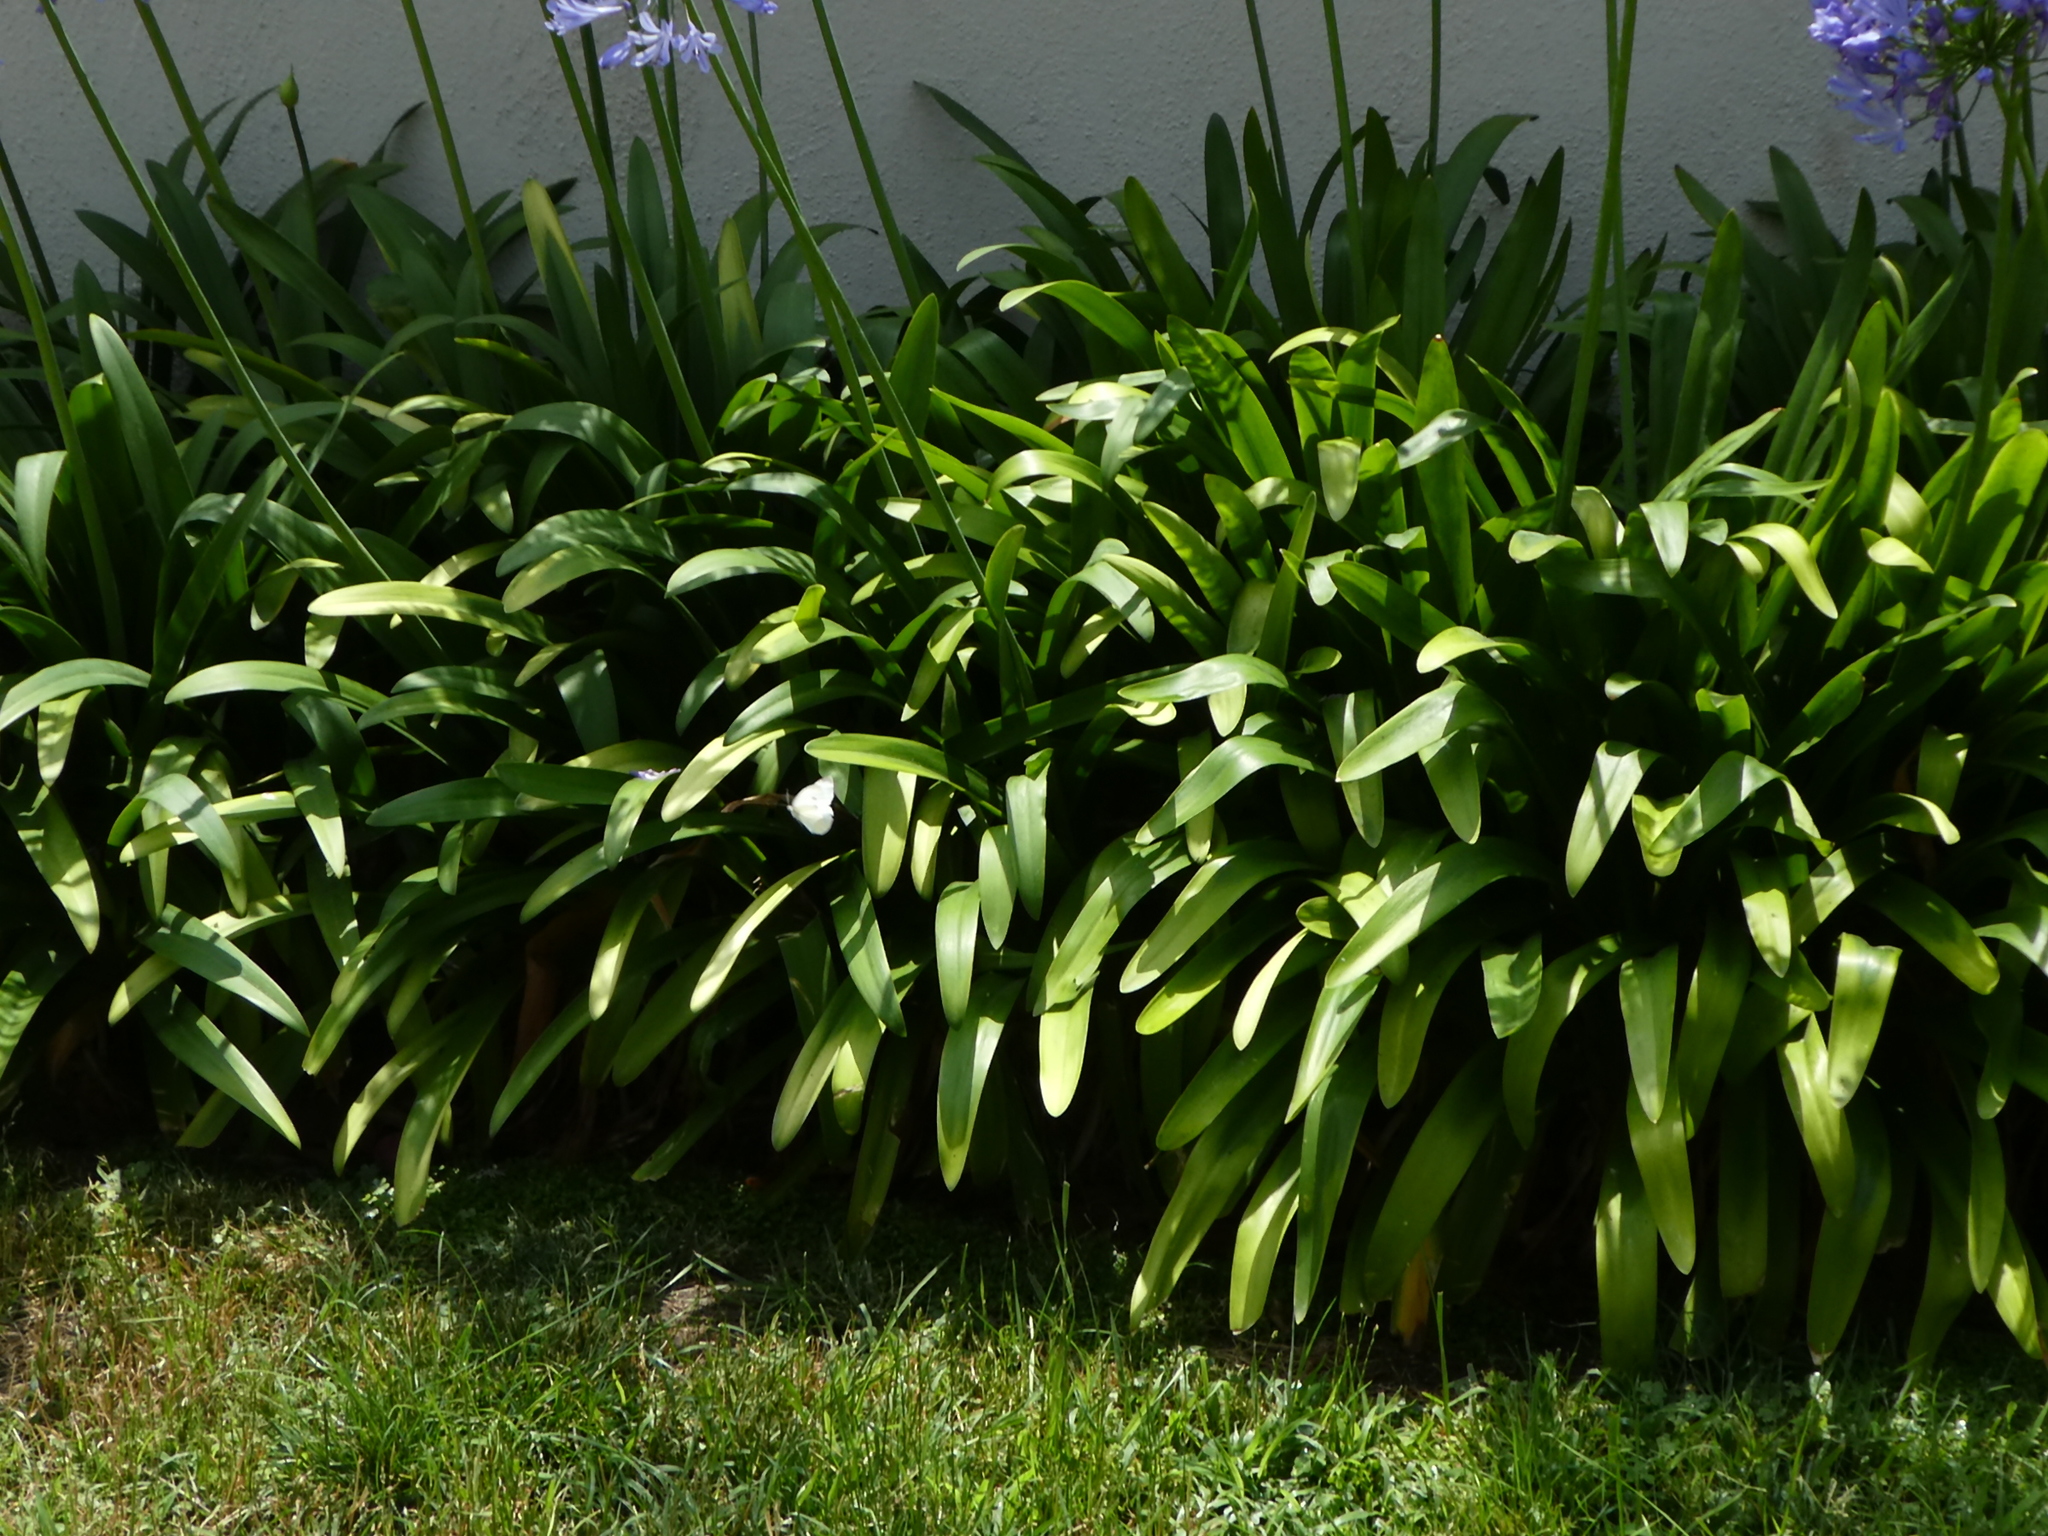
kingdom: Animalia
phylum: Arthropoda
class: Insecta
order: Lepidoptera
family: Pieridae
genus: Pieris
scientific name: Pieris rapae
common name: Small white
